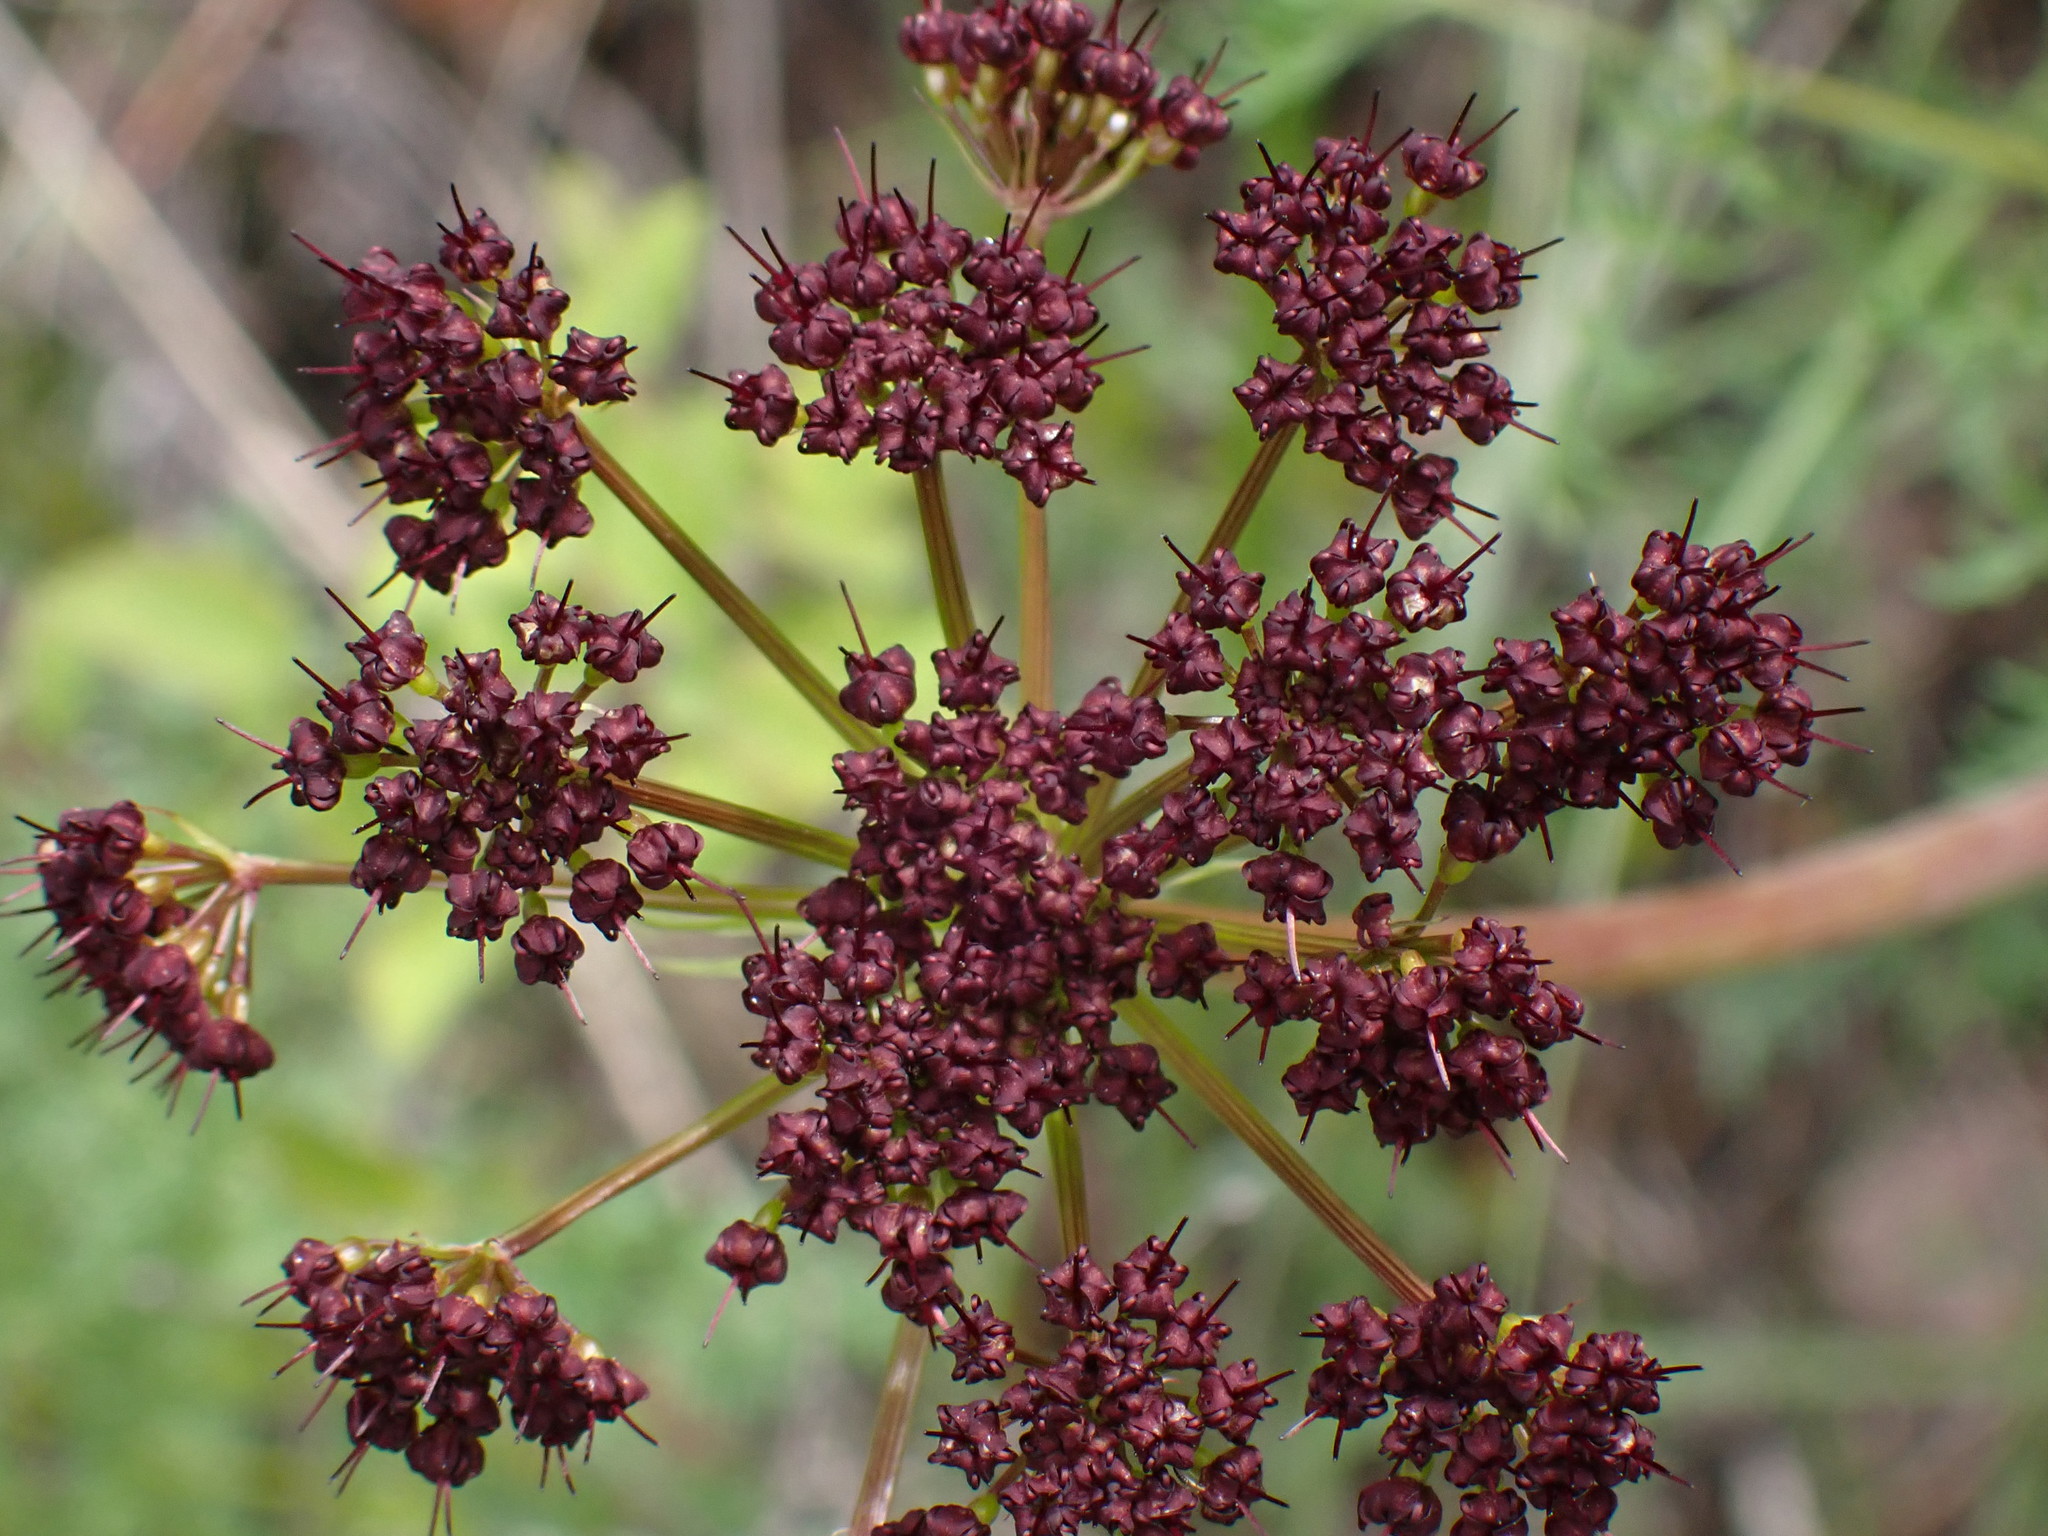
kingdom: Plantae
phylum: Tracheophyta
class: Magnoliopsida
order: Apiales
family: Apiaceae
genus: Lomatium
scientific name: Lomatium multifidum
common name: Carrot-leaved biscuitroot
